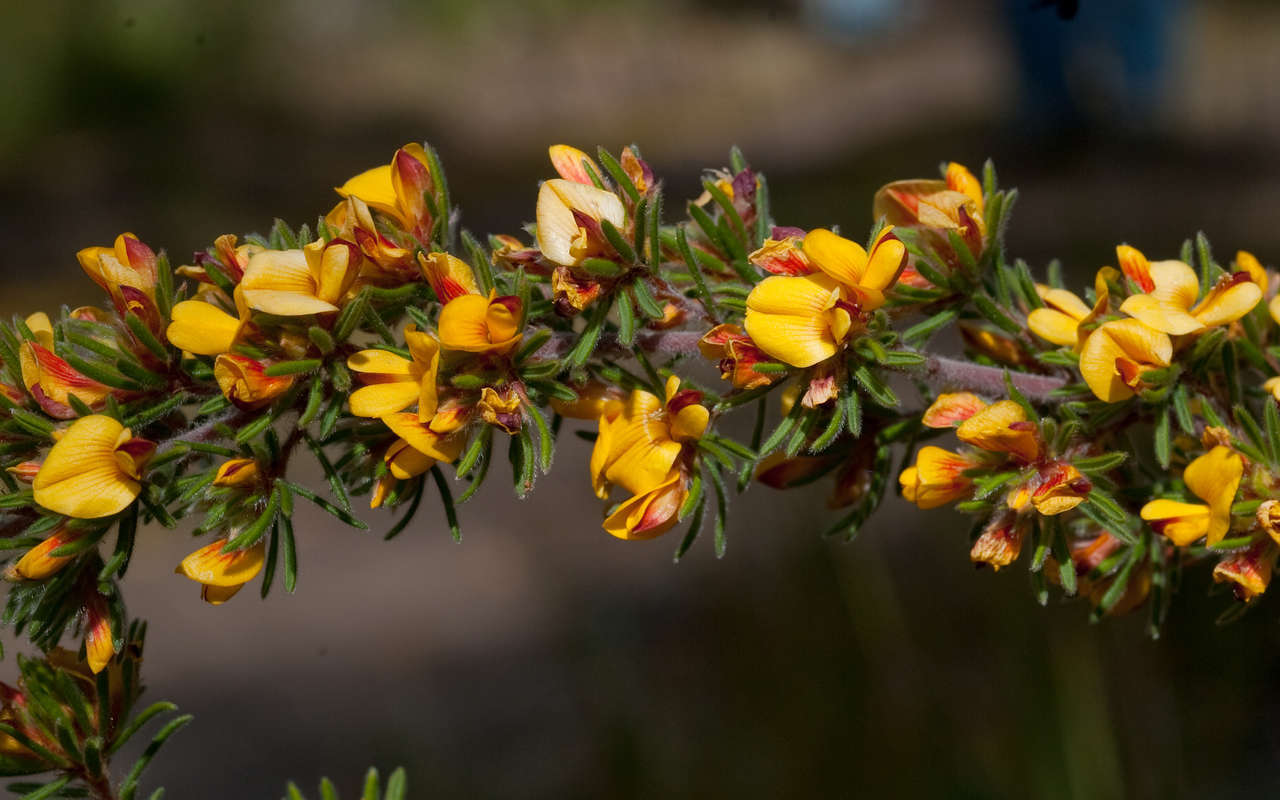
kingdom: Plantae
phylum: Tracheophyta
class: Magnoliopsida
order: Fabales
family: Fabaceae
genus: Pultenaea
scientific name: Pultenaea daltonii
